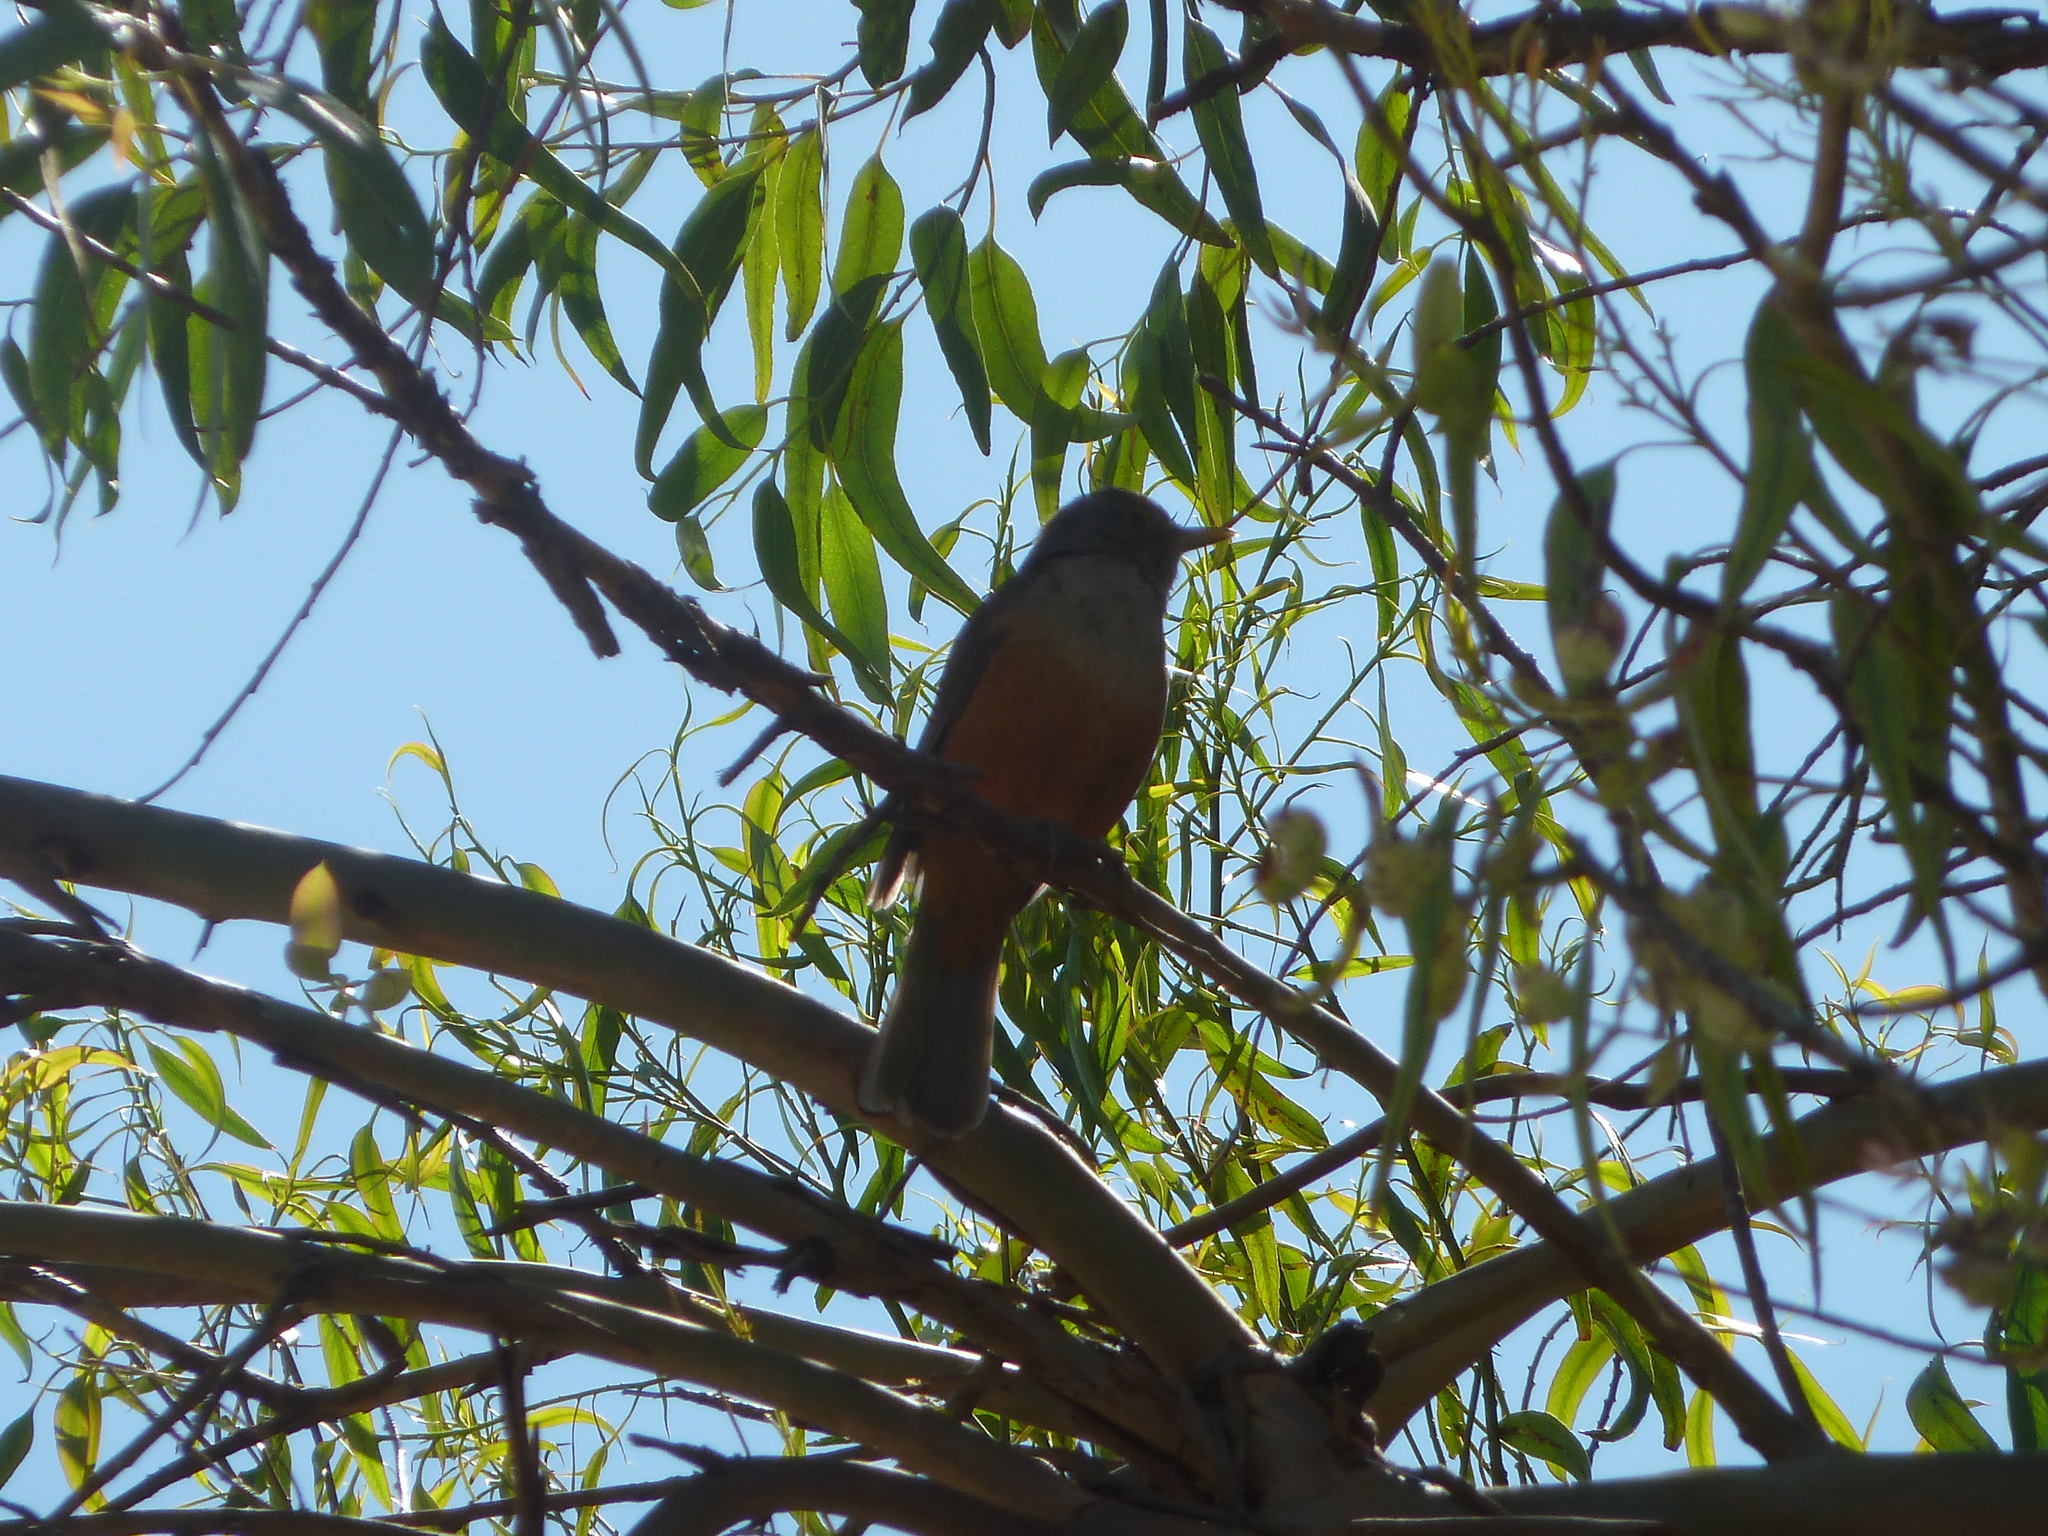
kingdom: Animalia
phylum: Chordata
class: Aves
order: Passeriformes
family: Turdidae
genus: Turdus
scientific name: Turdus rufiventris
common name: Rufous-bellied thrush
